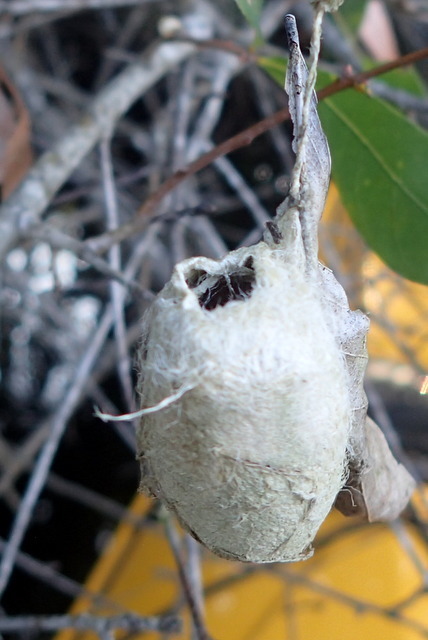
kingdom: Animalia
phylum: Arthropoda
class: Insecta
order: Lepidoptera
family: Saturniidae
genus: Antheraea
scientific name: Antheraea polyphemus
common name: Polyphemus moth
